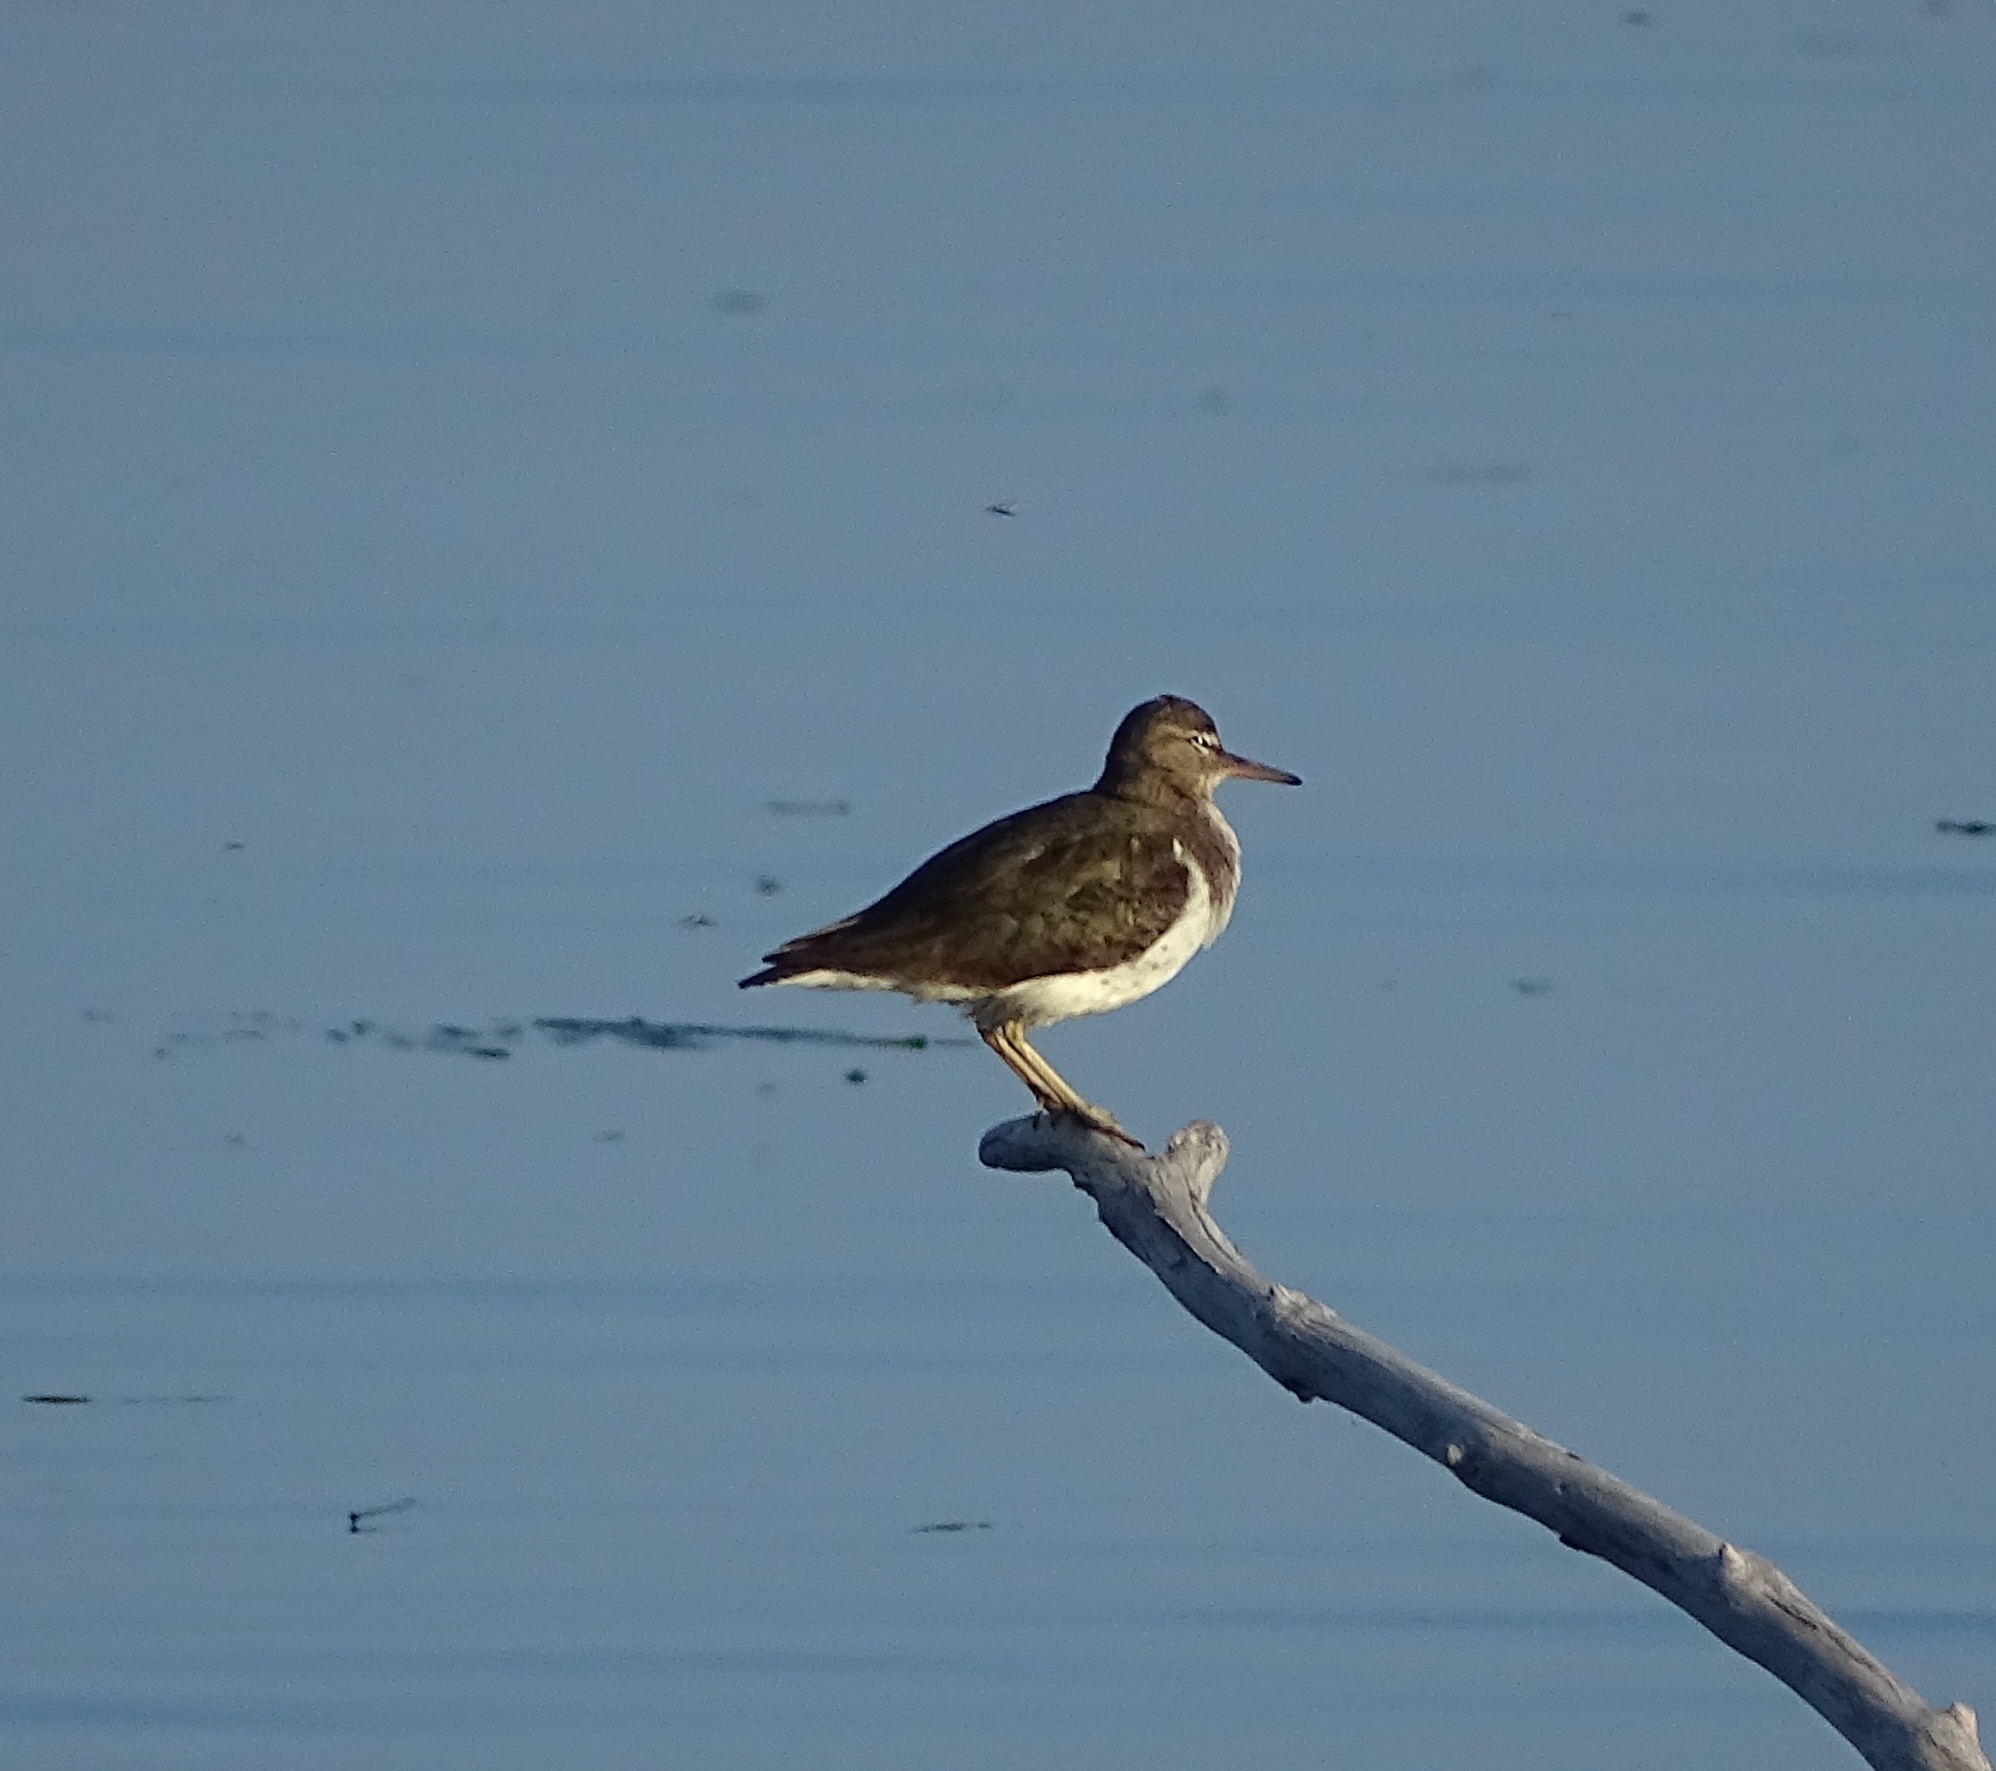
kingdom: Animalia
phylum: Chordata
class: Aves
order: Charadriiformes
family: Scolopacidae
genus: Actitis
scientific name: Actitis macularius
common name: Spotted sandpiper
